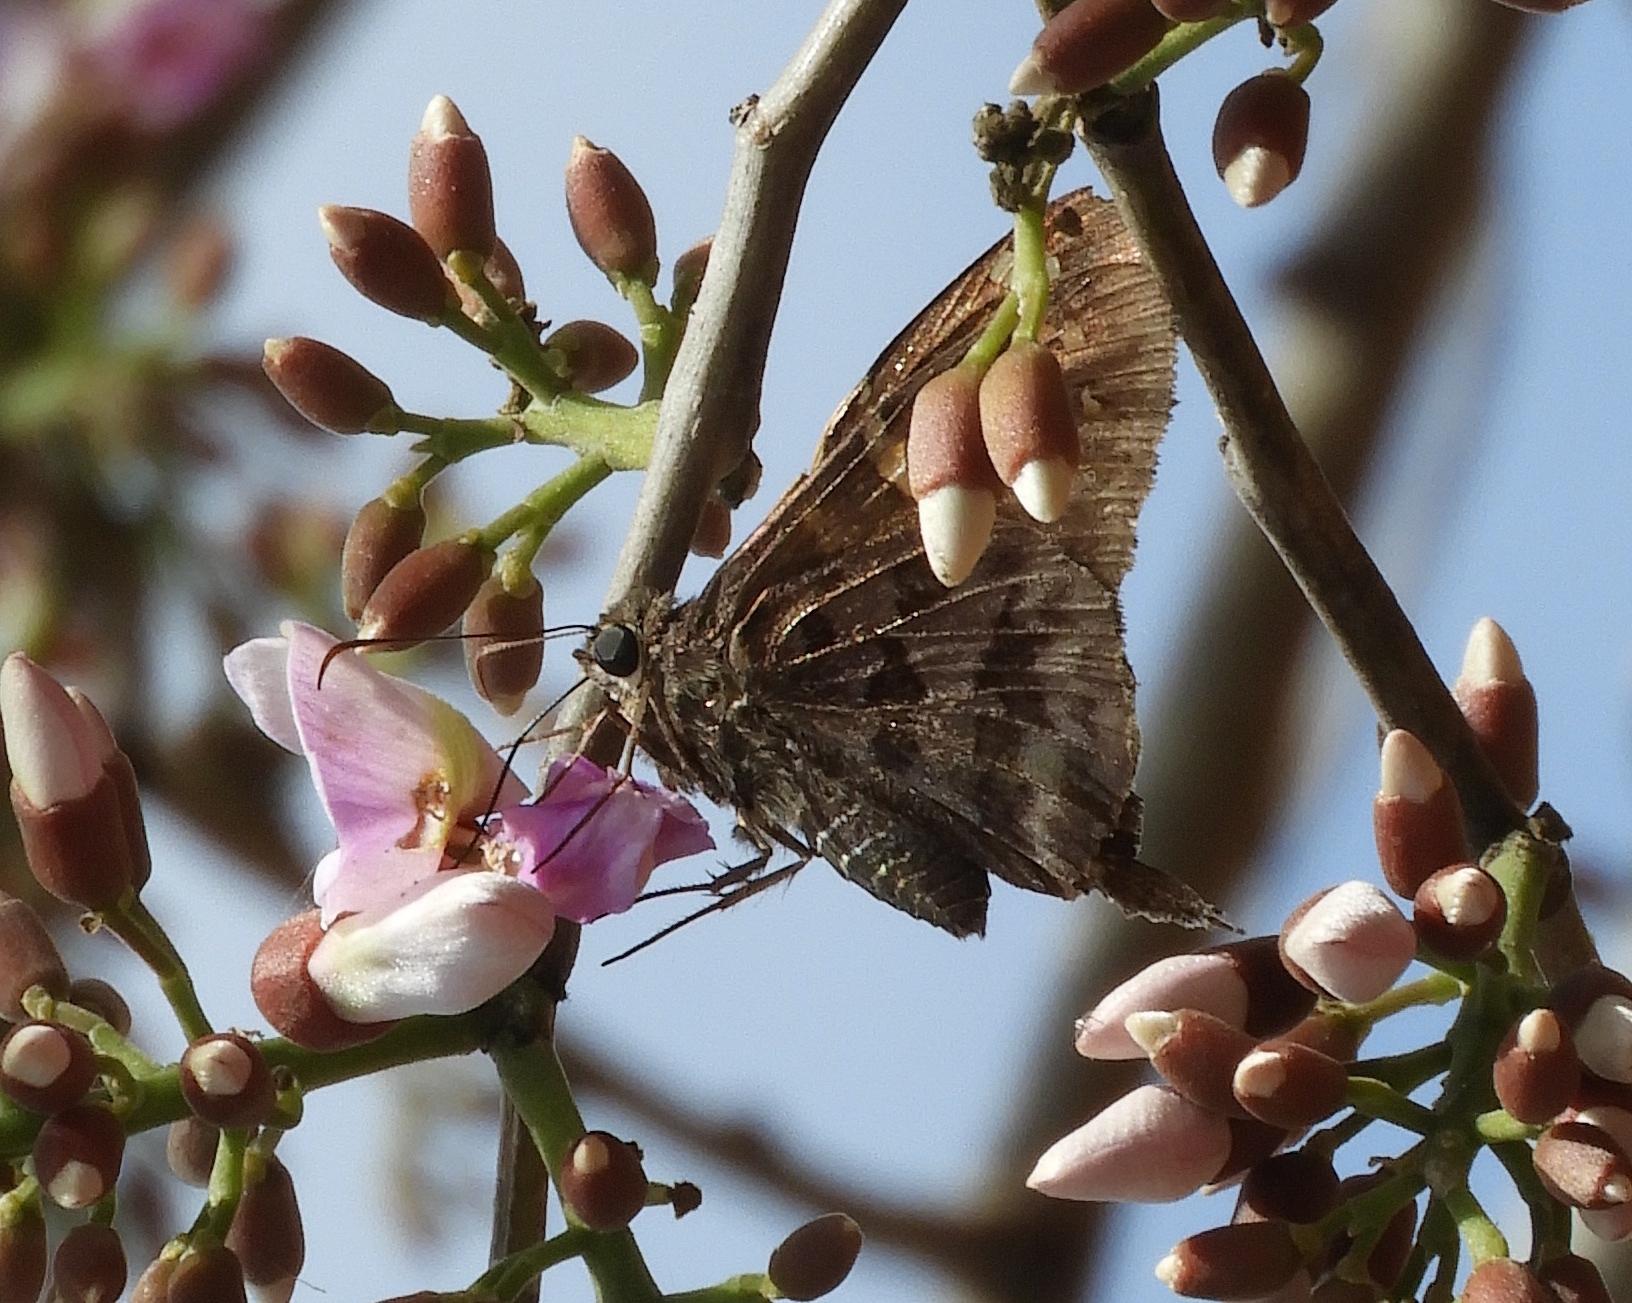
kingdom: Animalia
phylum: Arthropoda
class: Insecta
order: Lepidoptera
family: Hesperiidae
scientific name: Hesperiidae
